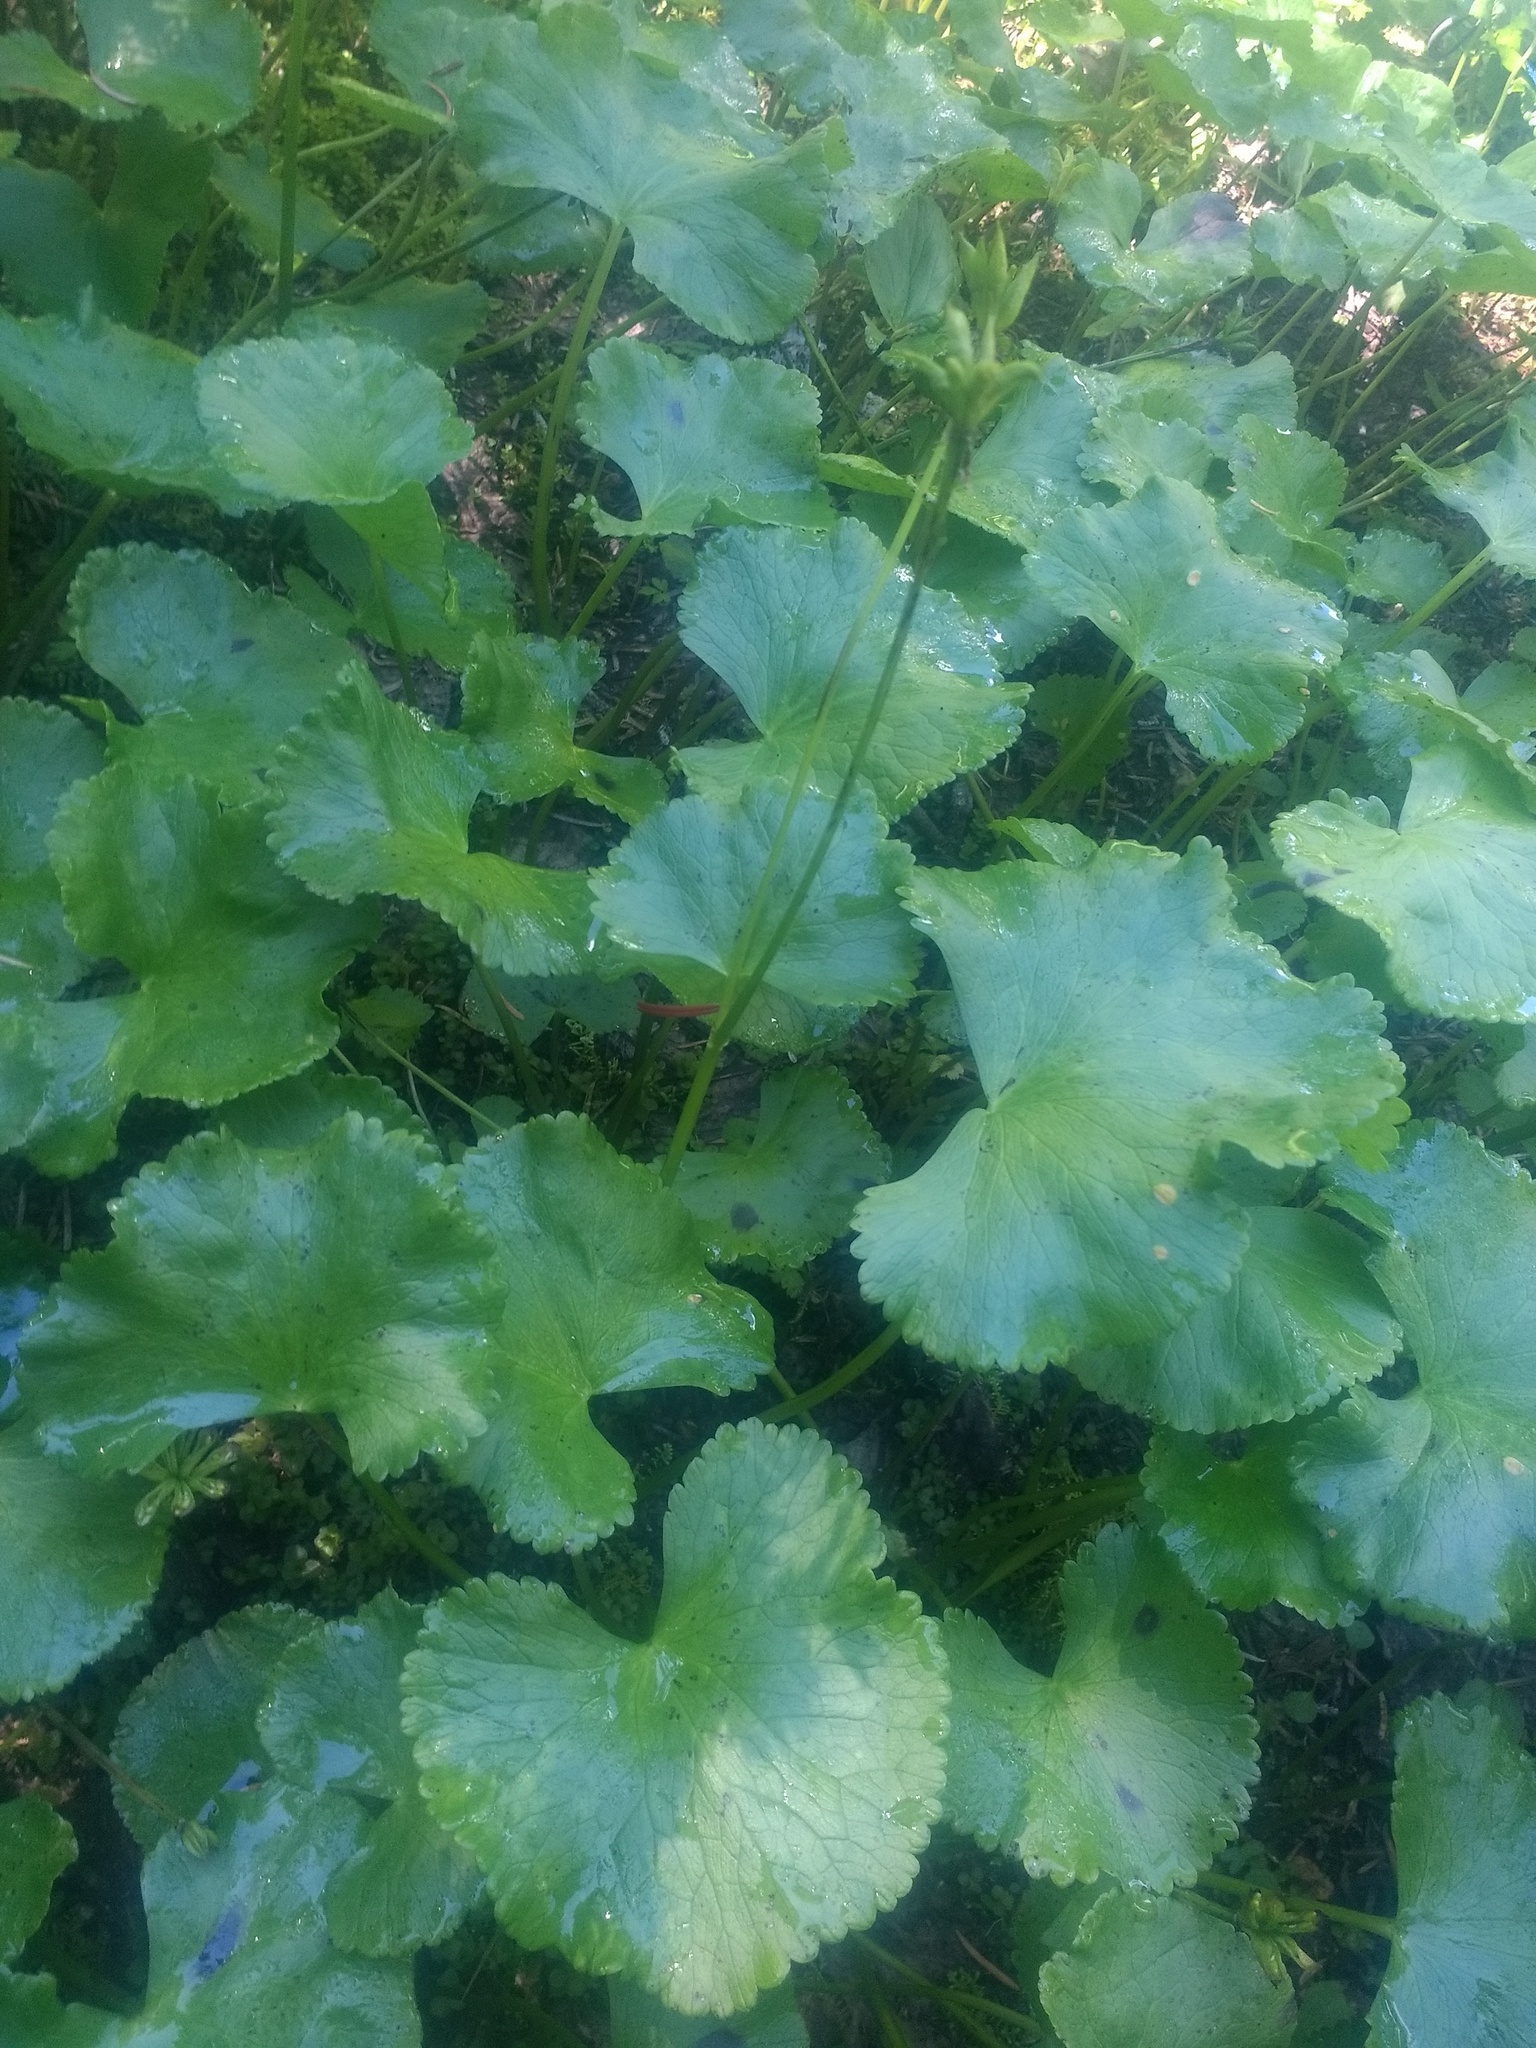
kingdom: Plantae
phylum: Tracheophyta
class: Magnoliopsida
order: Ranunculales
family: Ranunculaceae
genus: Caltha
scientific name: Caltha biflora
